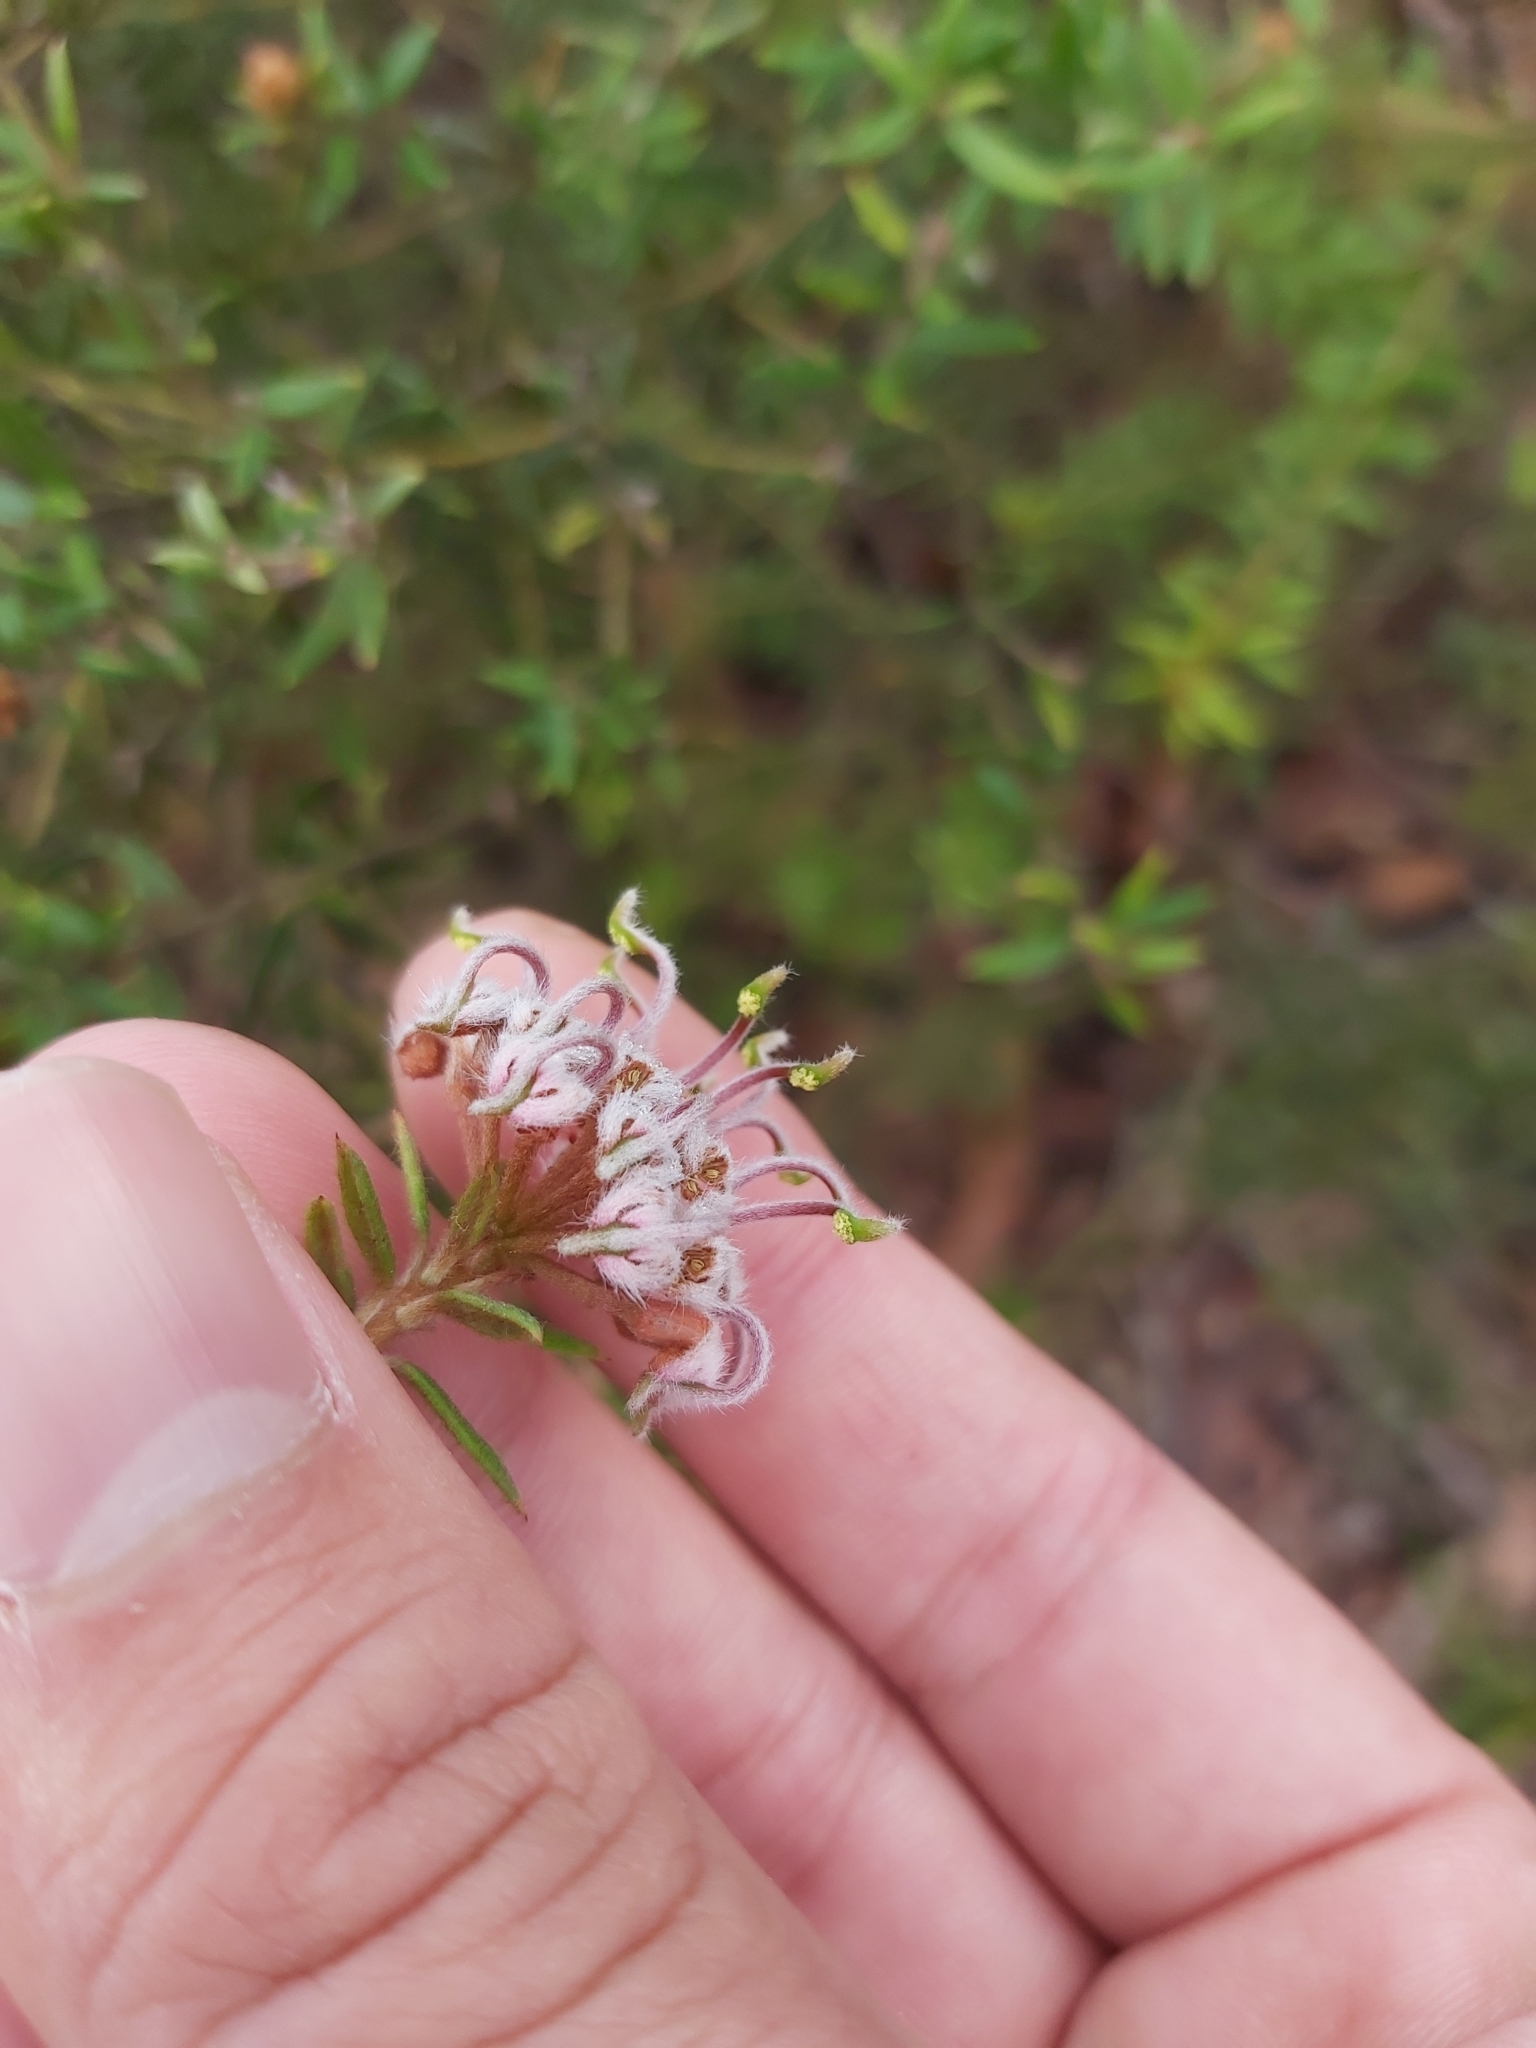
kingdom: Plantae
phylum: Tracheophyta
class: Magnoliopsida
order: Proteales
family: Proteaceae
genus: Grevillea
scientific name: Grevillea phylicoides
